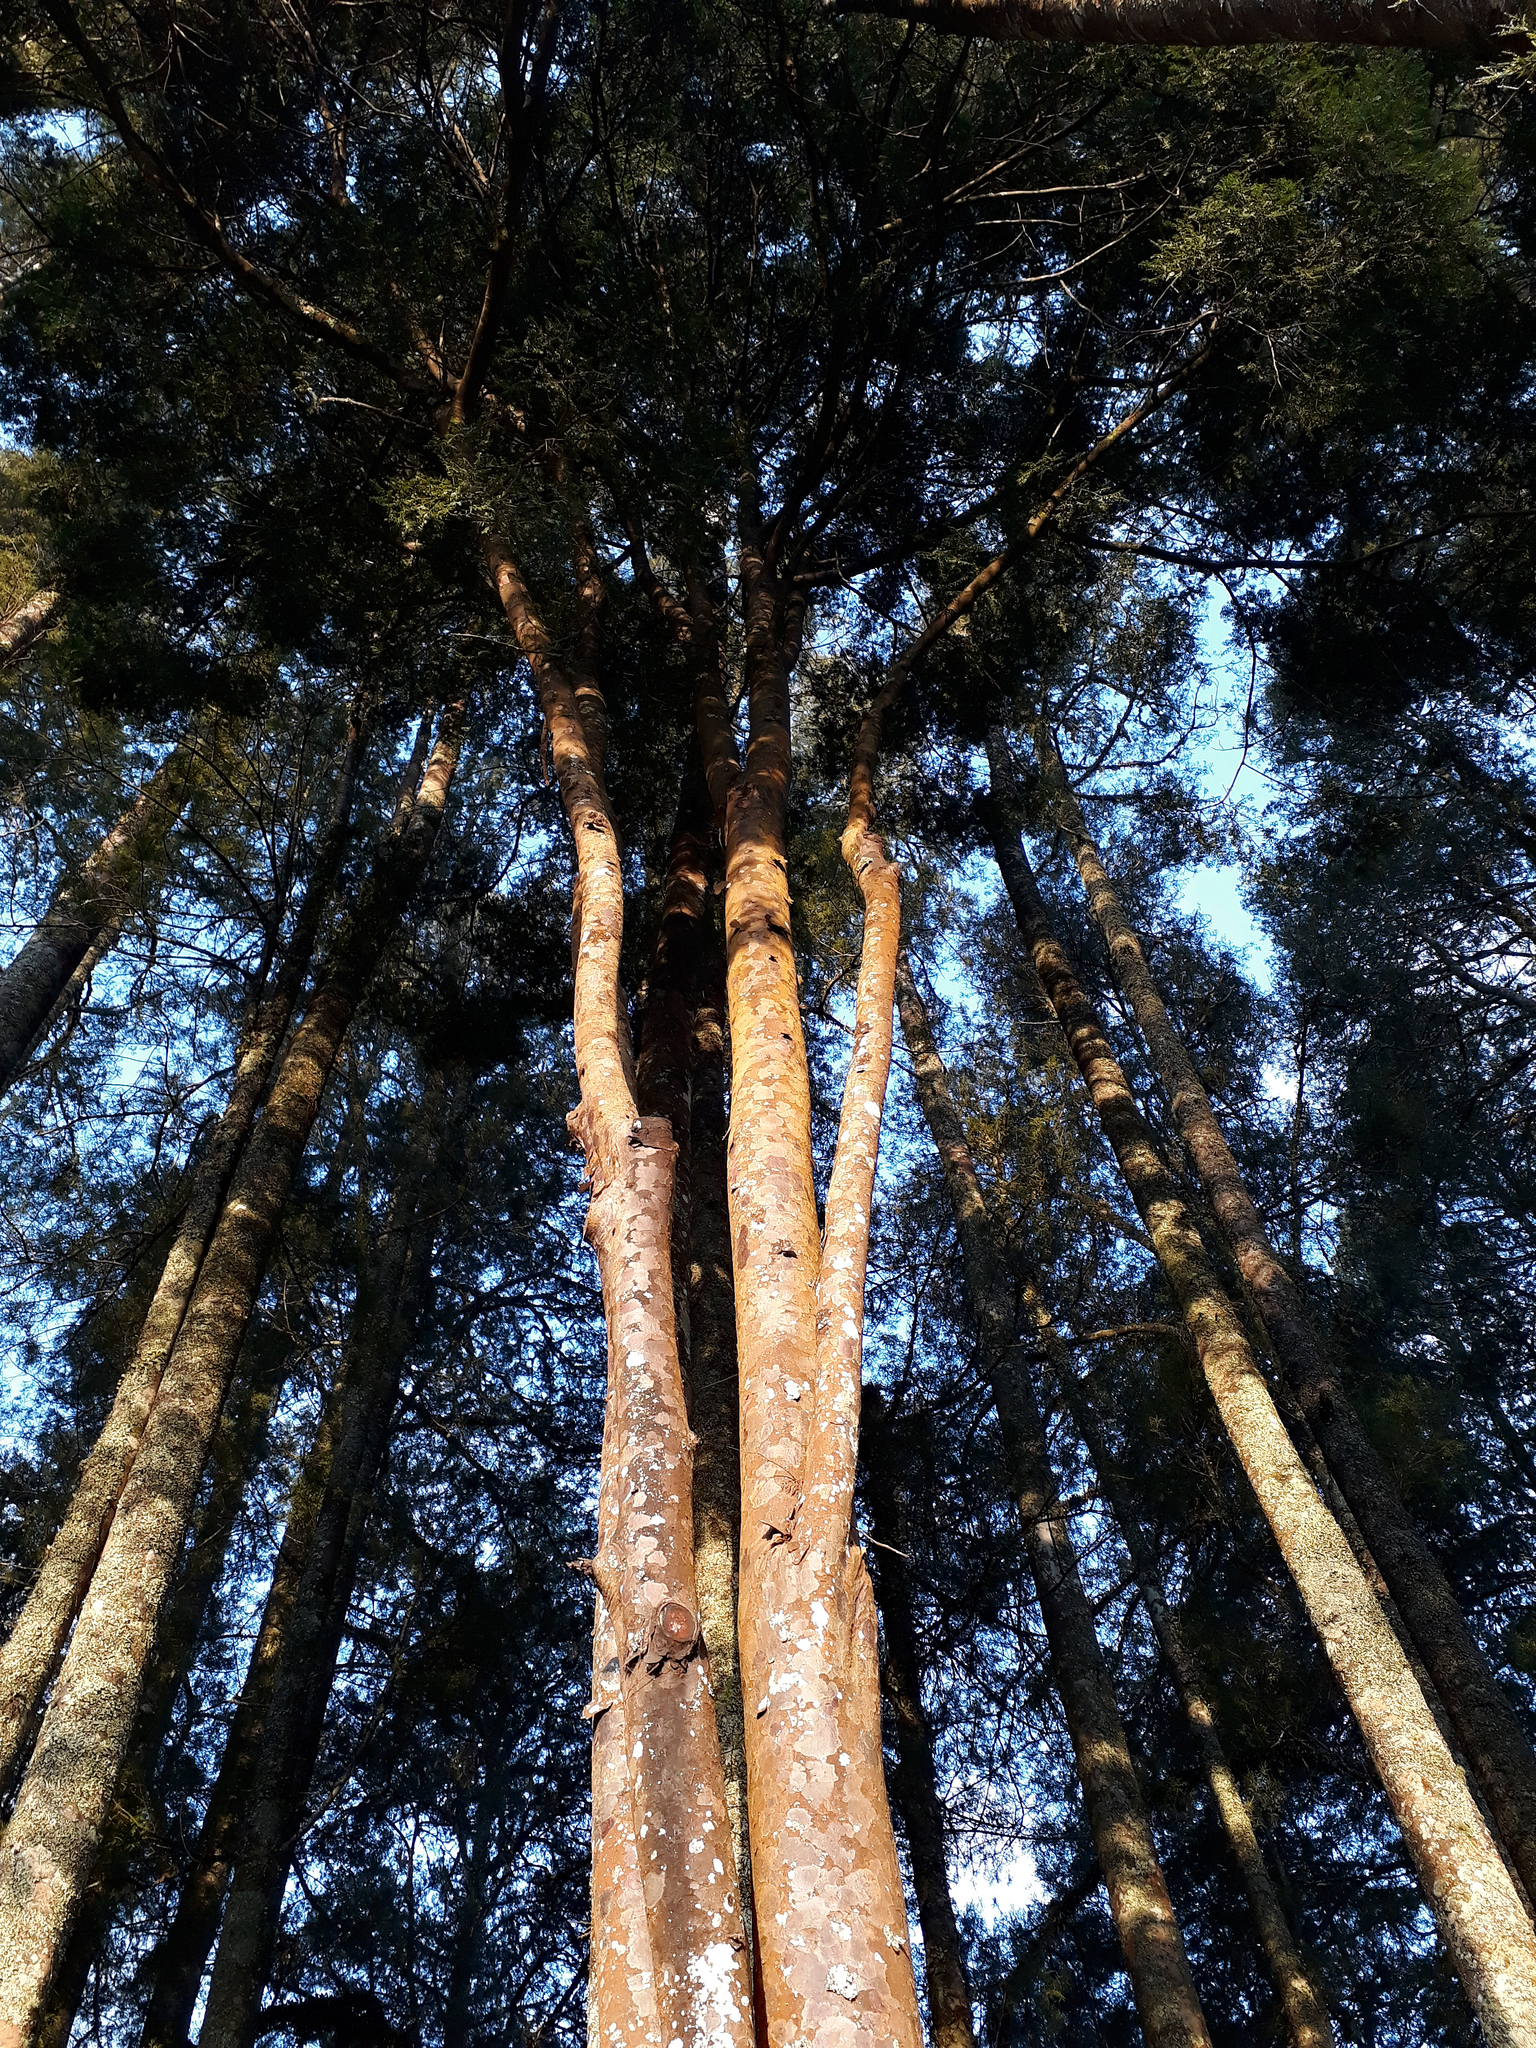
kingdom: Plantae
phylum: Tracheophyta
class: Pinopsida
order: Pinales
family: Podocarpaceae
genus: Prumnopitys
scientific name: Prumnopitys taxifolia
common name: Matai
